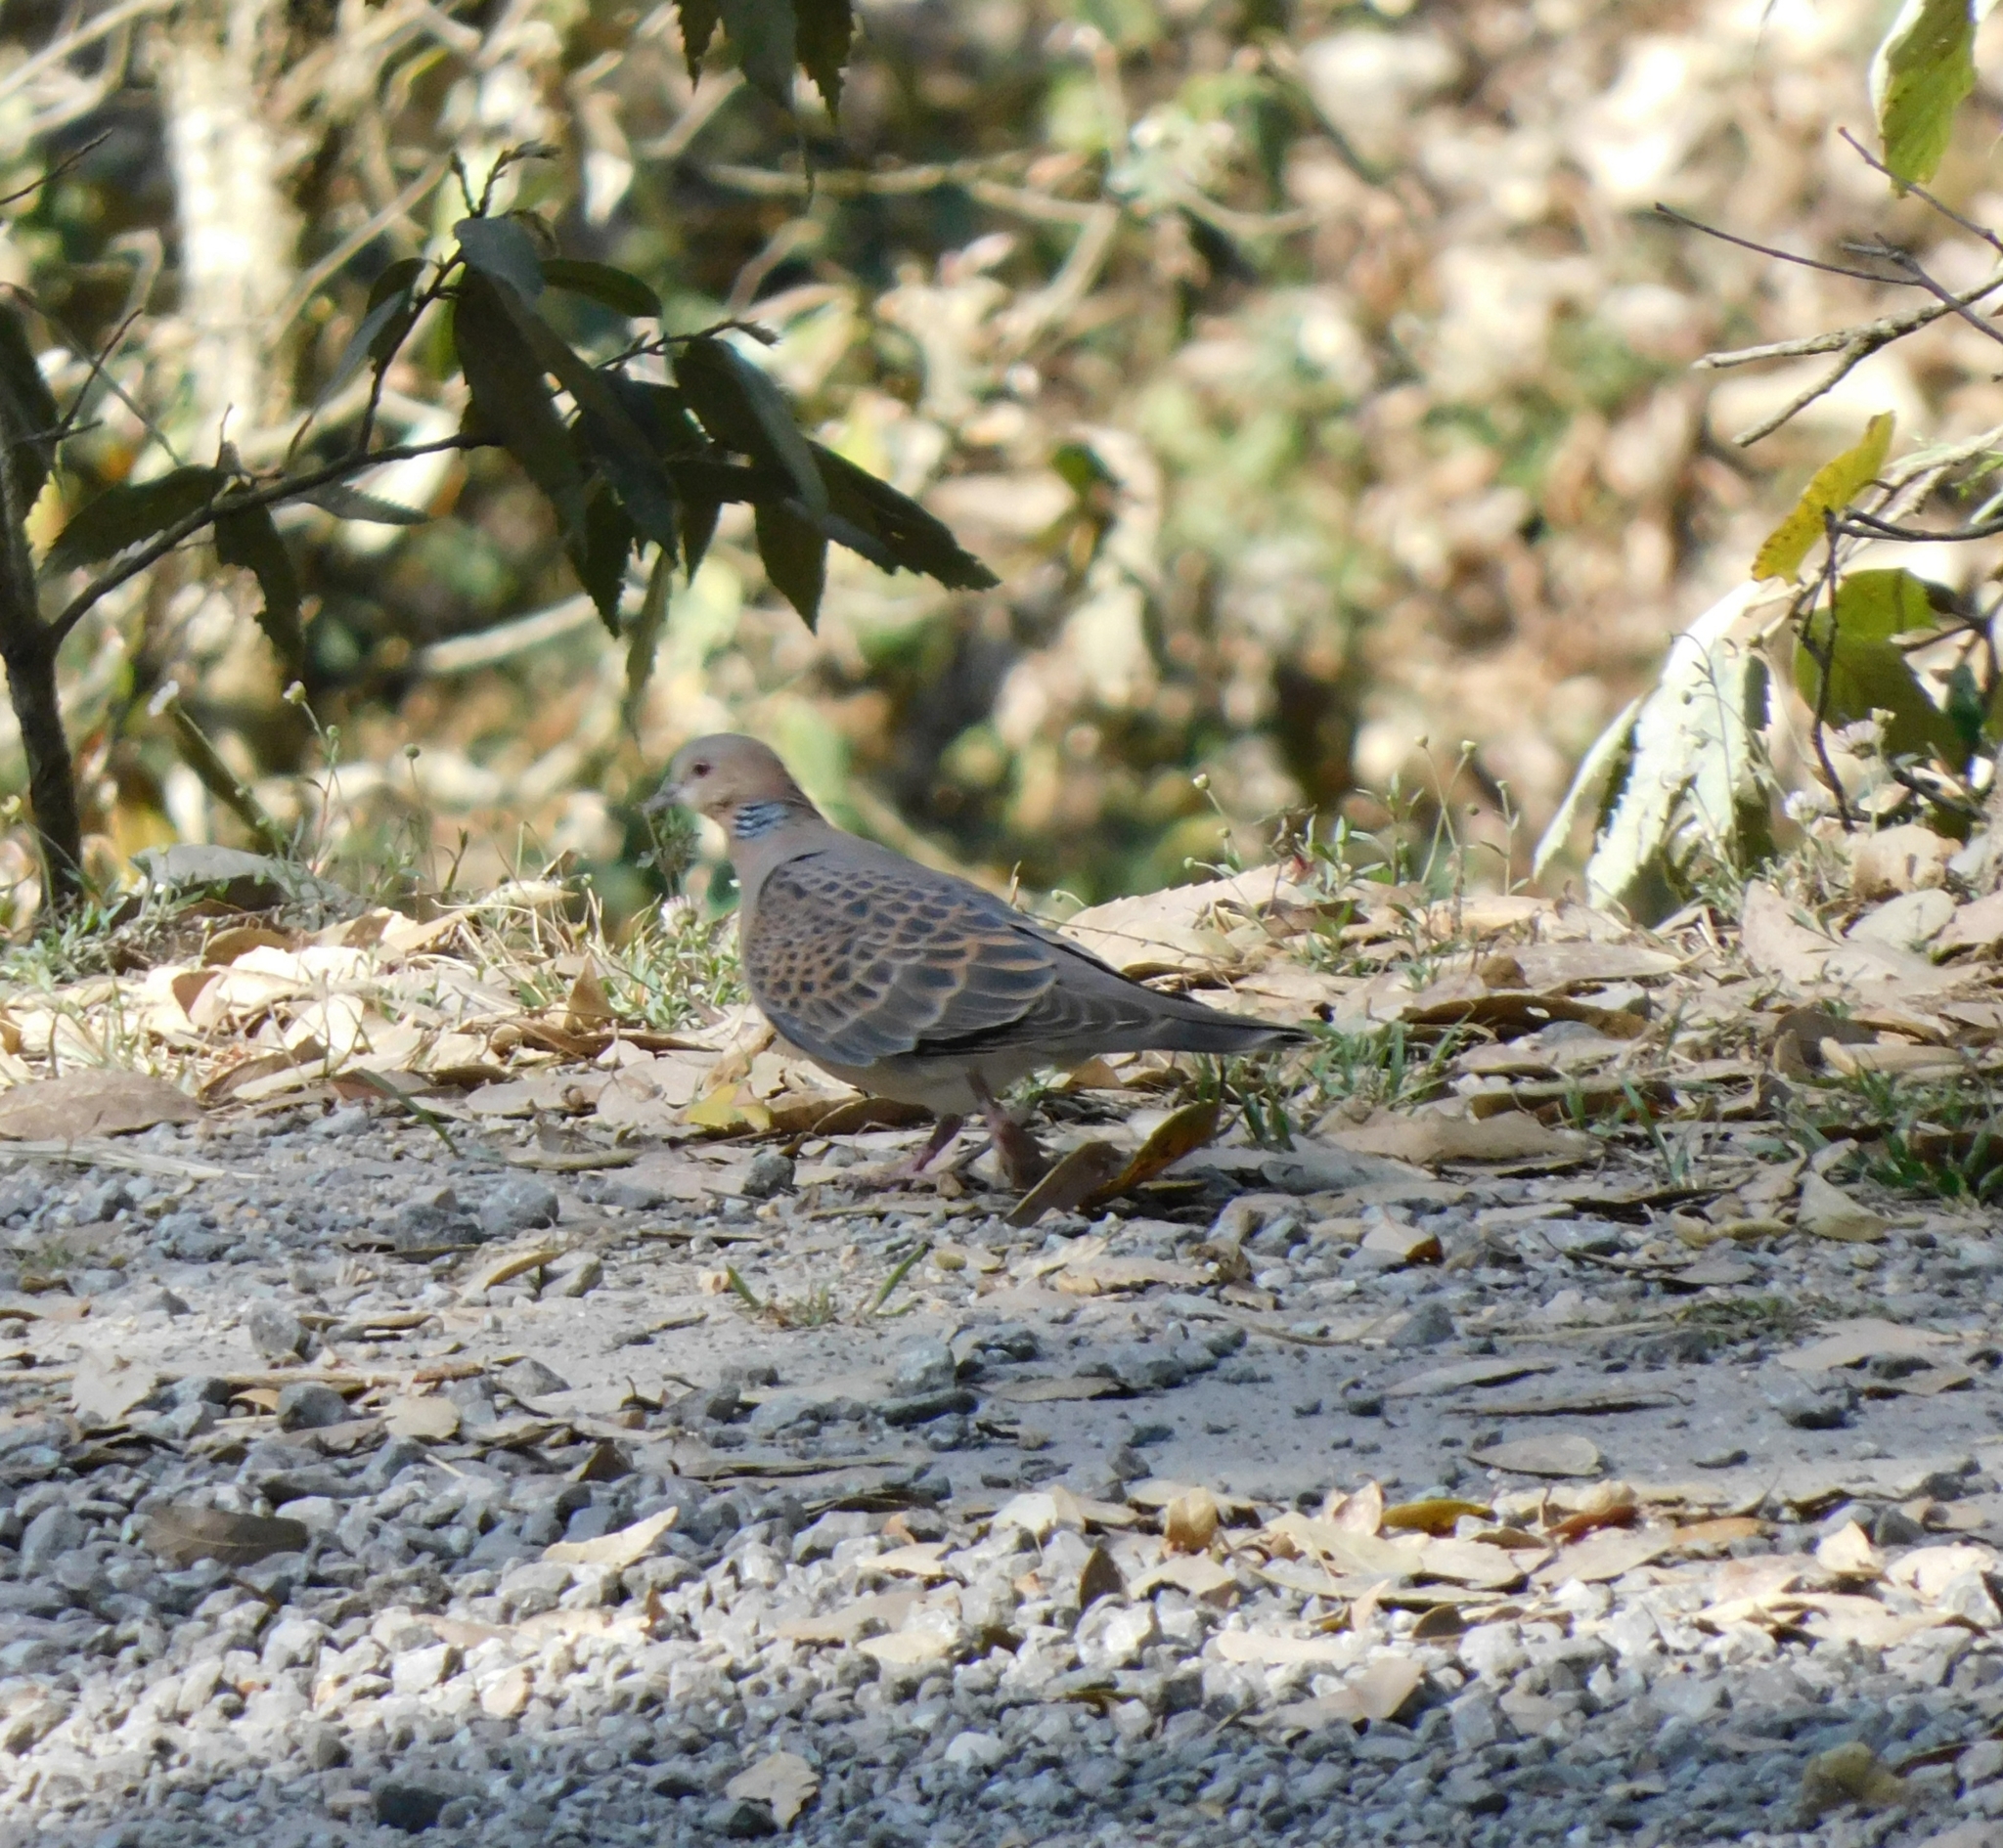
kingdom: Animalia
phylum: Chordata
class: Aves
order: Columbiformes
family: Columbidae
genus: Streptopelia
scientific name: Streptopelia orientalis
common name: Oriental turtle dove
